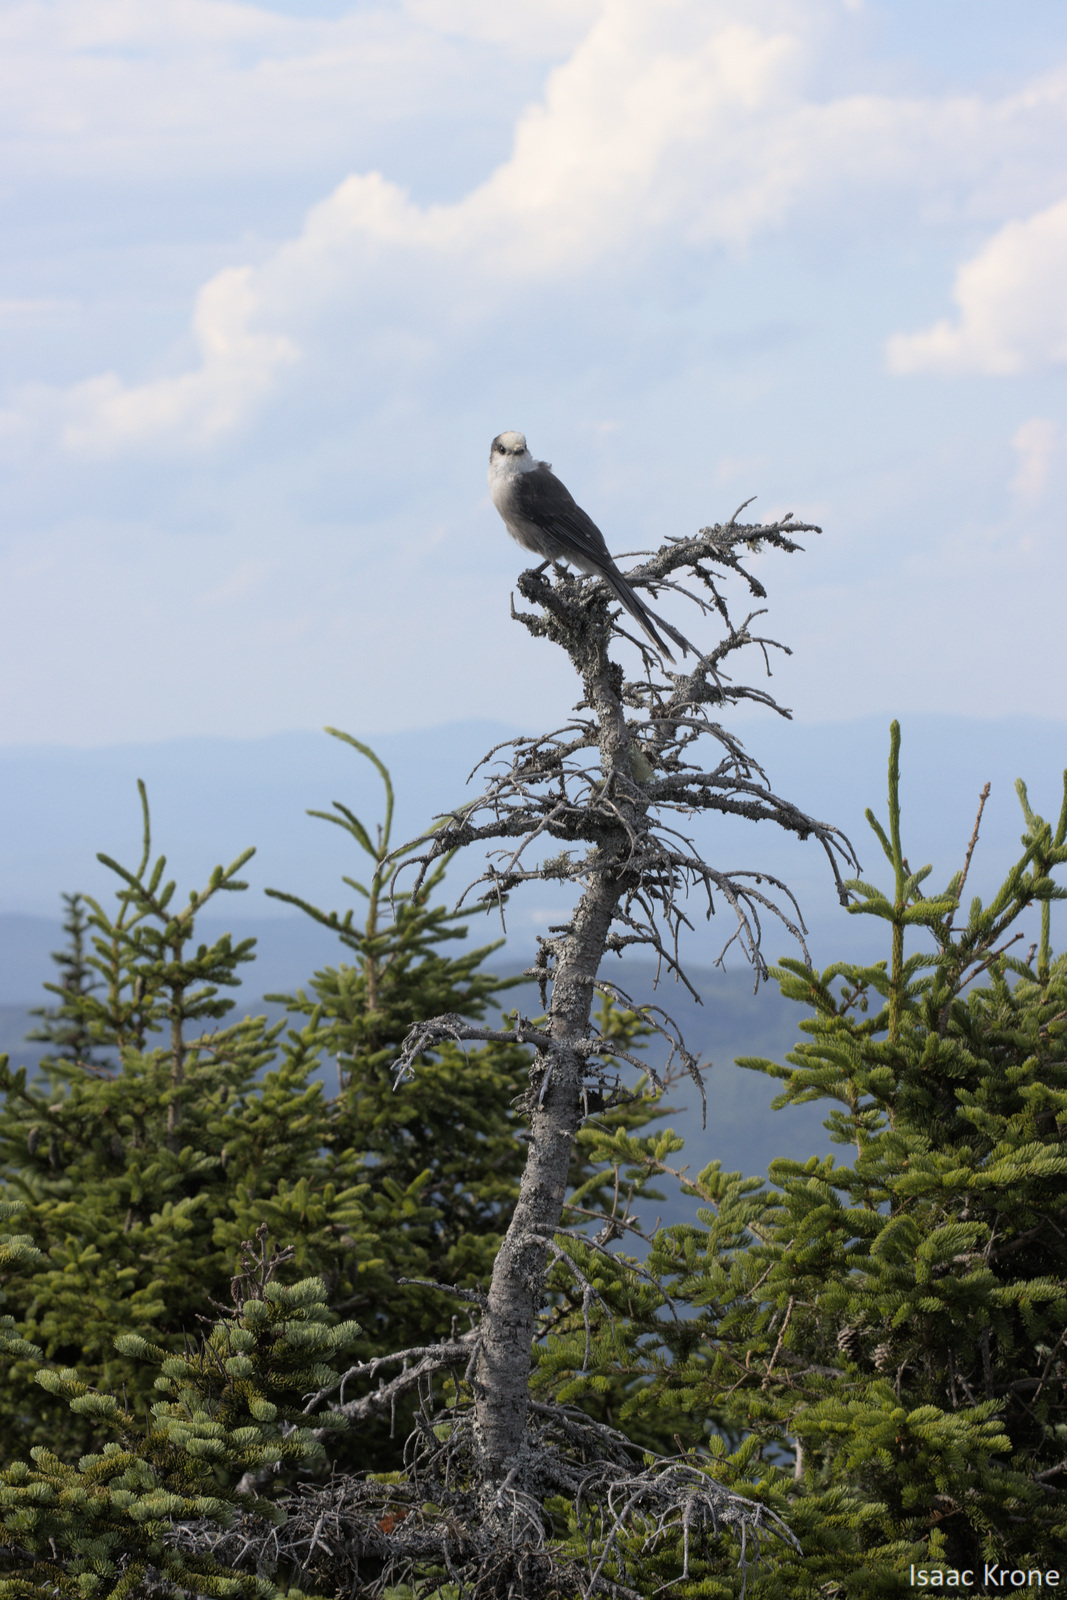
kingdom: Animalia
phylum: Chordata
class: Aves
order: Passeriformes
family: Corvidae
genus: Perisoreus
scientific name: Perisoreus canadensis
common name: Gray jay
